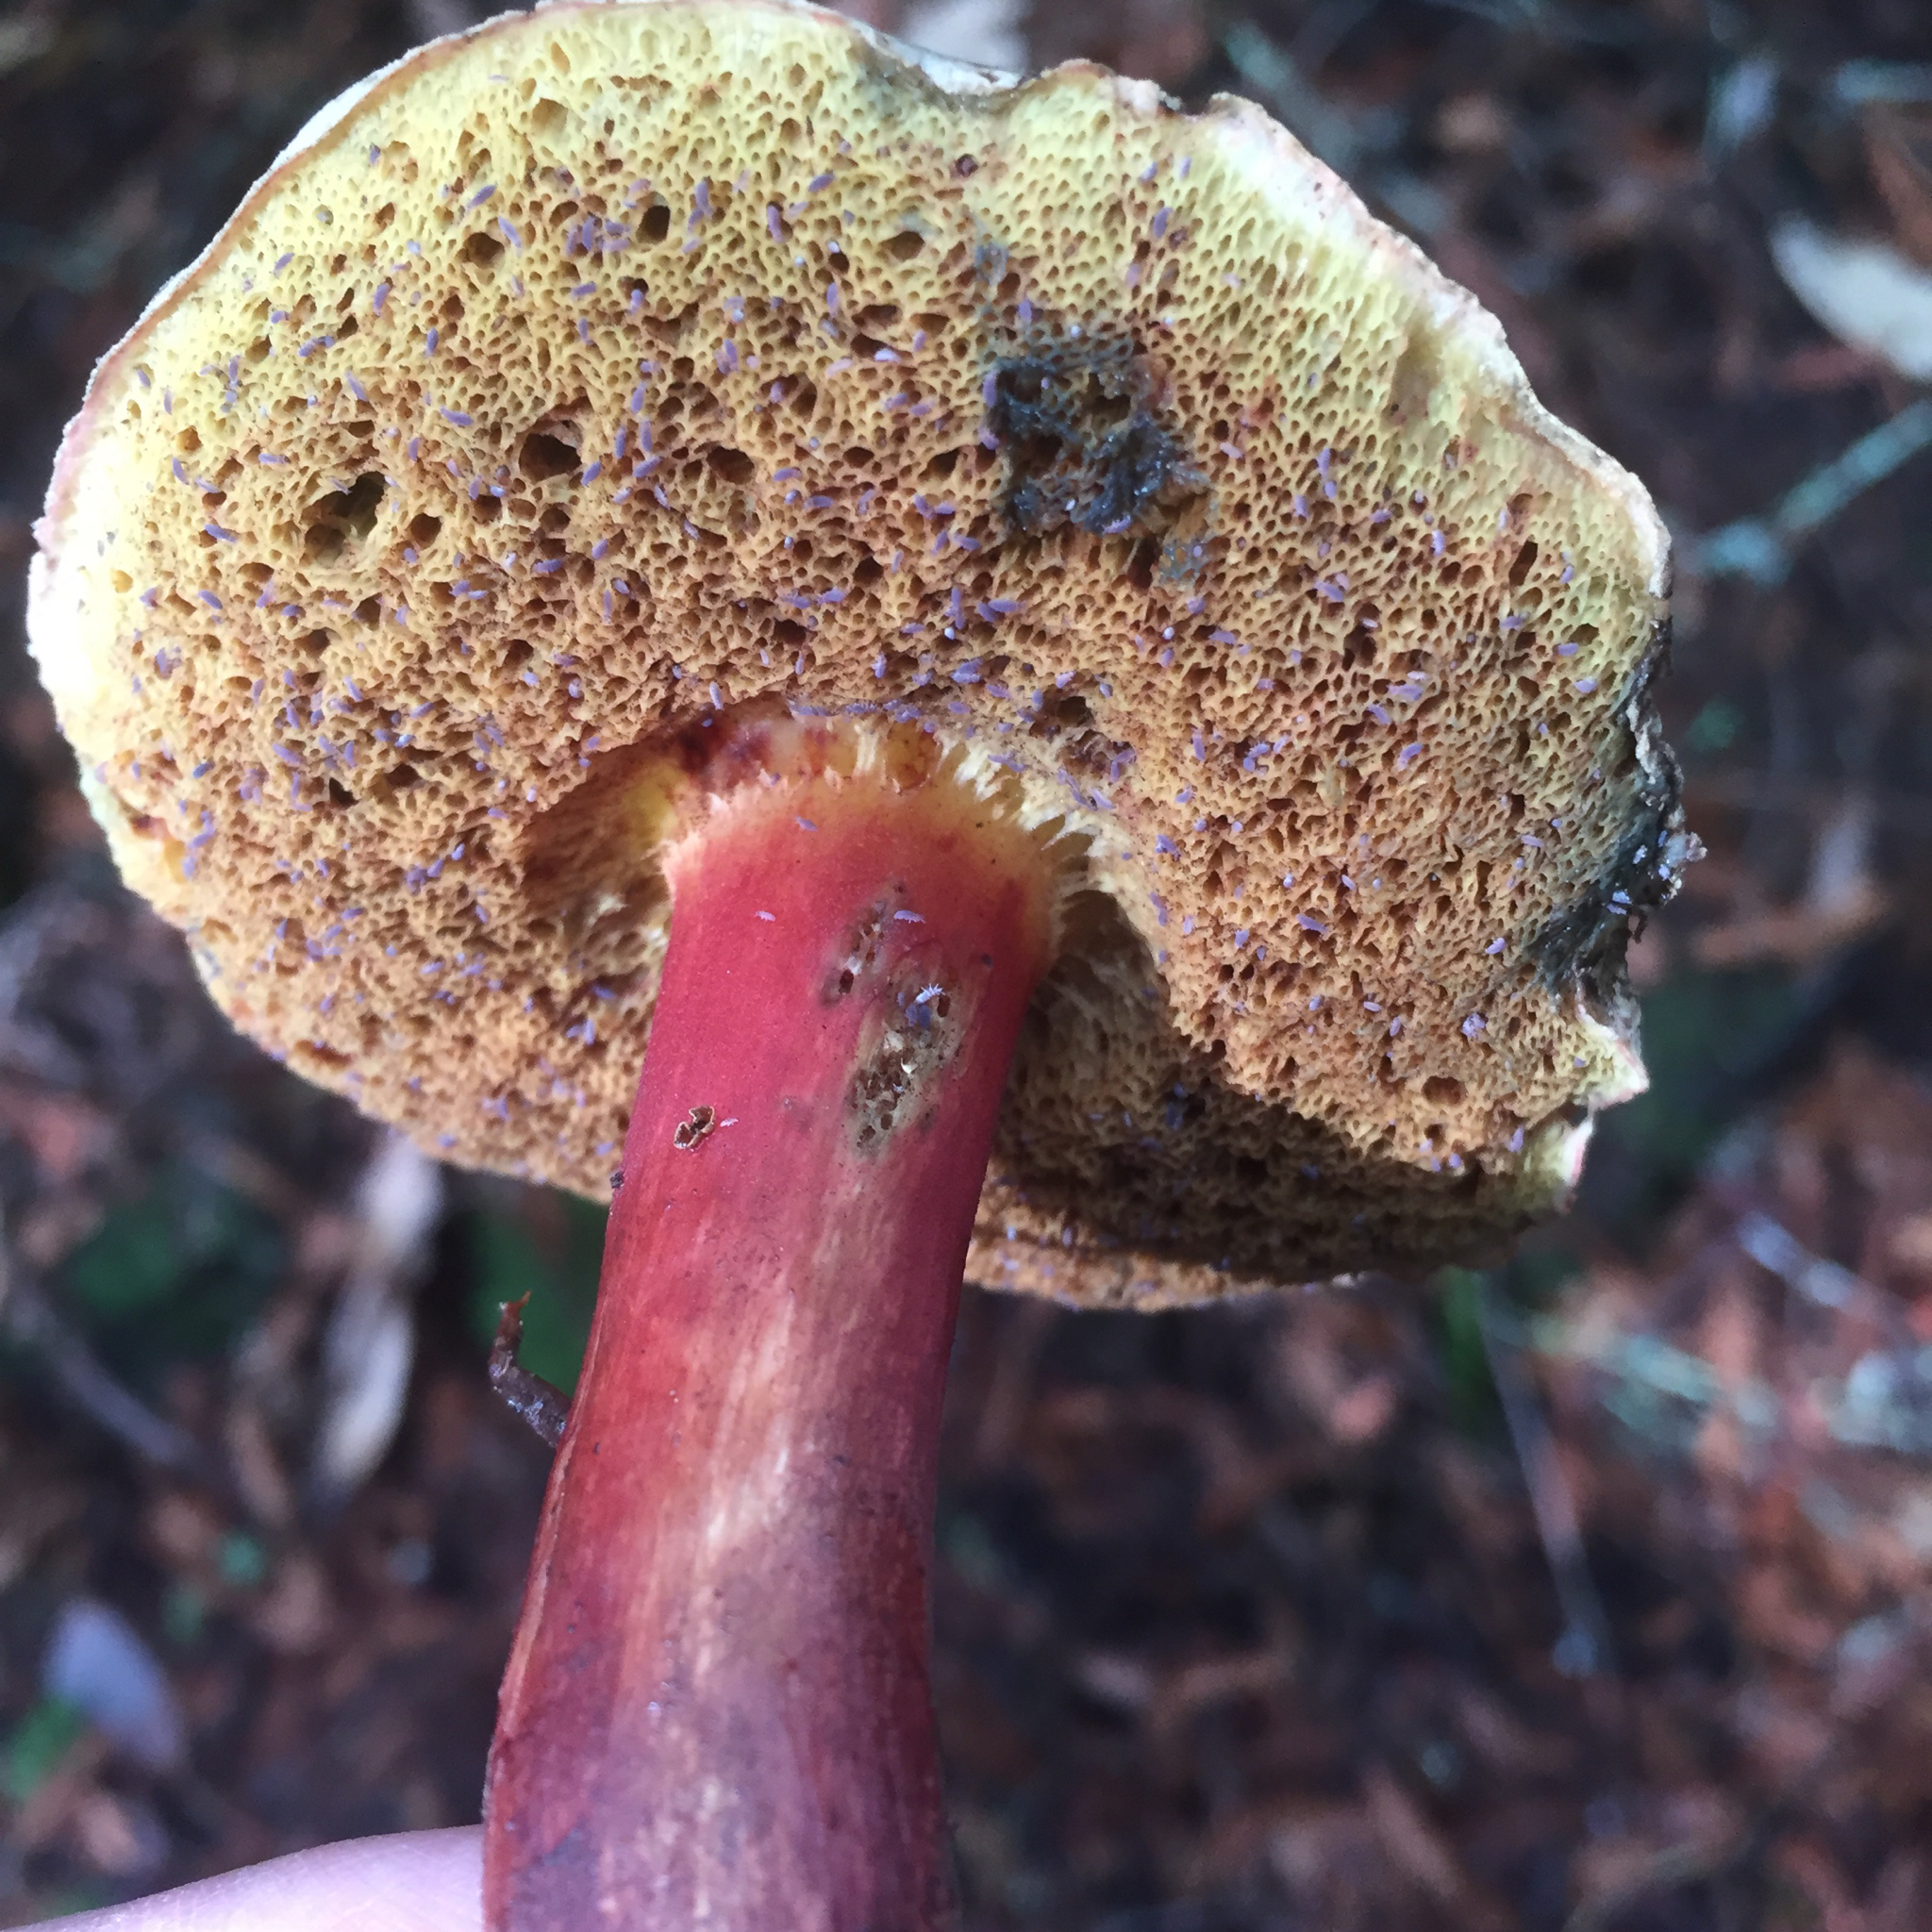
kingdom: Fungi
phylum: Basidiomycota
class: Agaricomycetes
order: Boletales
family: Boletaceae
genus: Xerocomellus
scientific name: Xerocomellus atropurpureus
